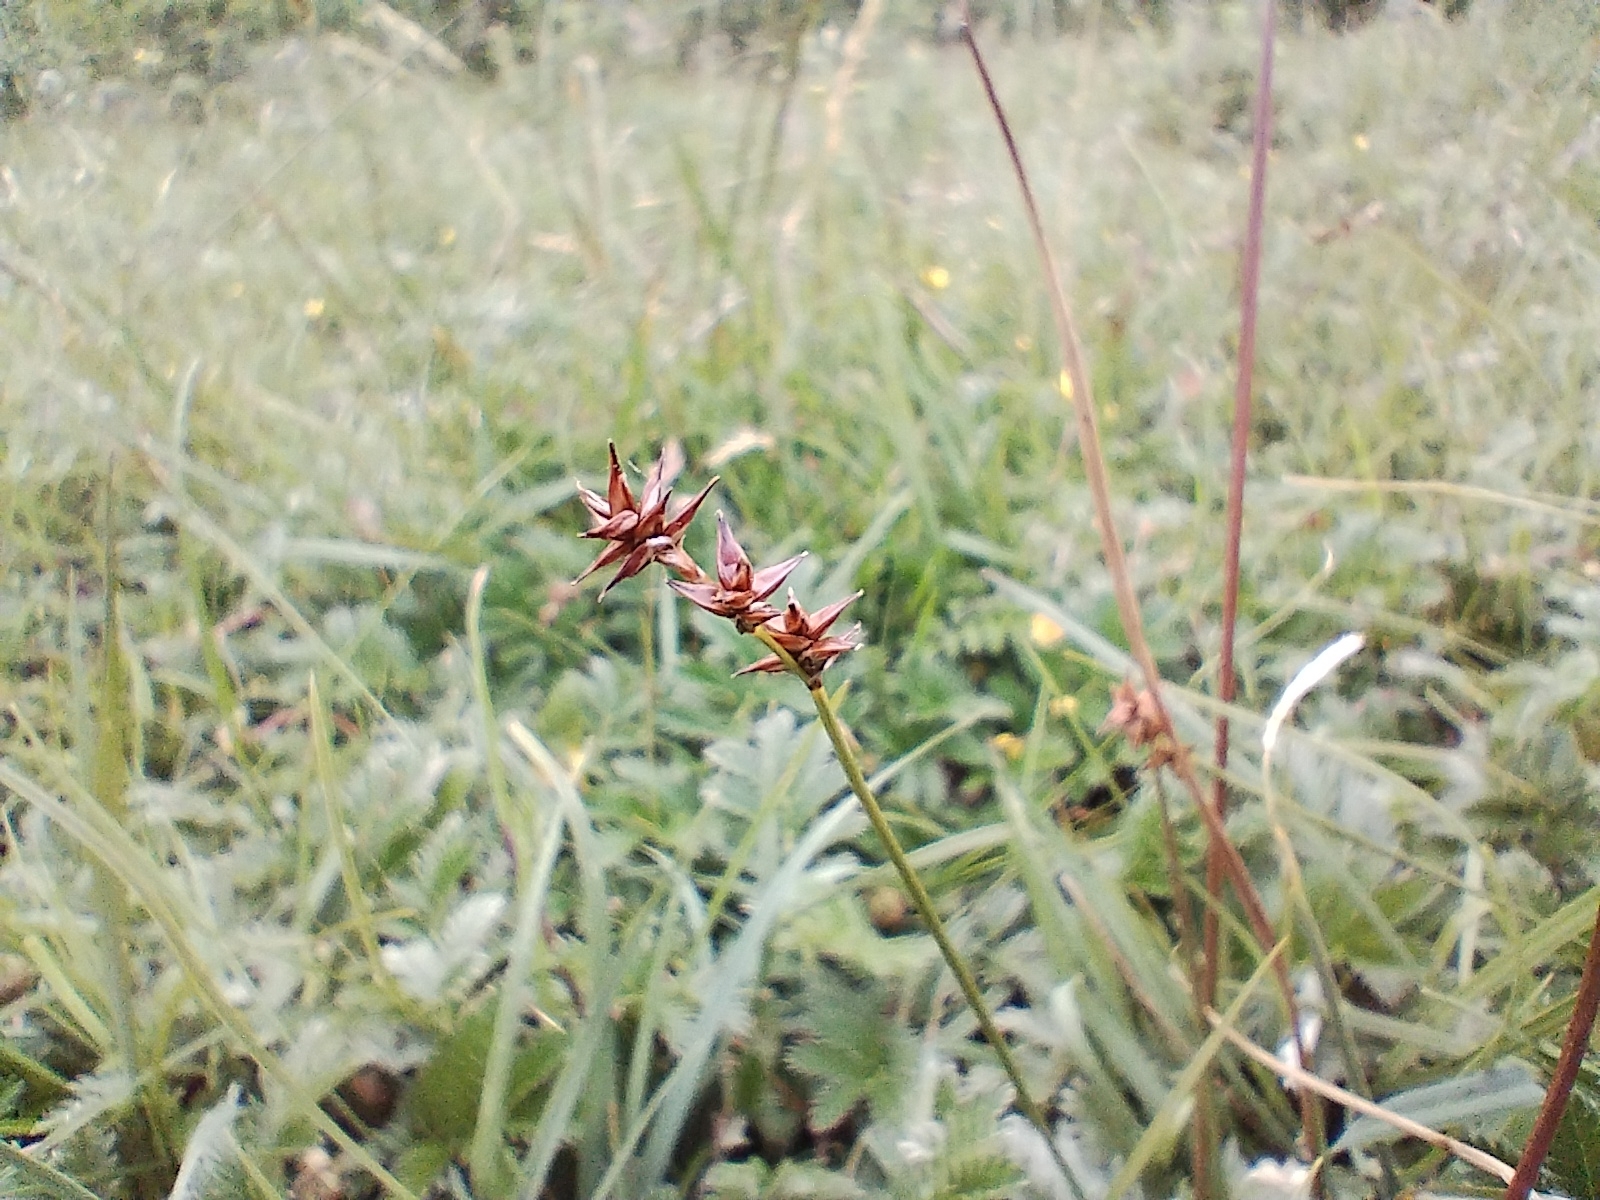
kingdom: Plantae
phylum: Tracheophyta
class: Liliopsida
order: Poales
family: Cyperaceae
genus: Carex
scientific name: Carex echinata
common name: Star sedge
